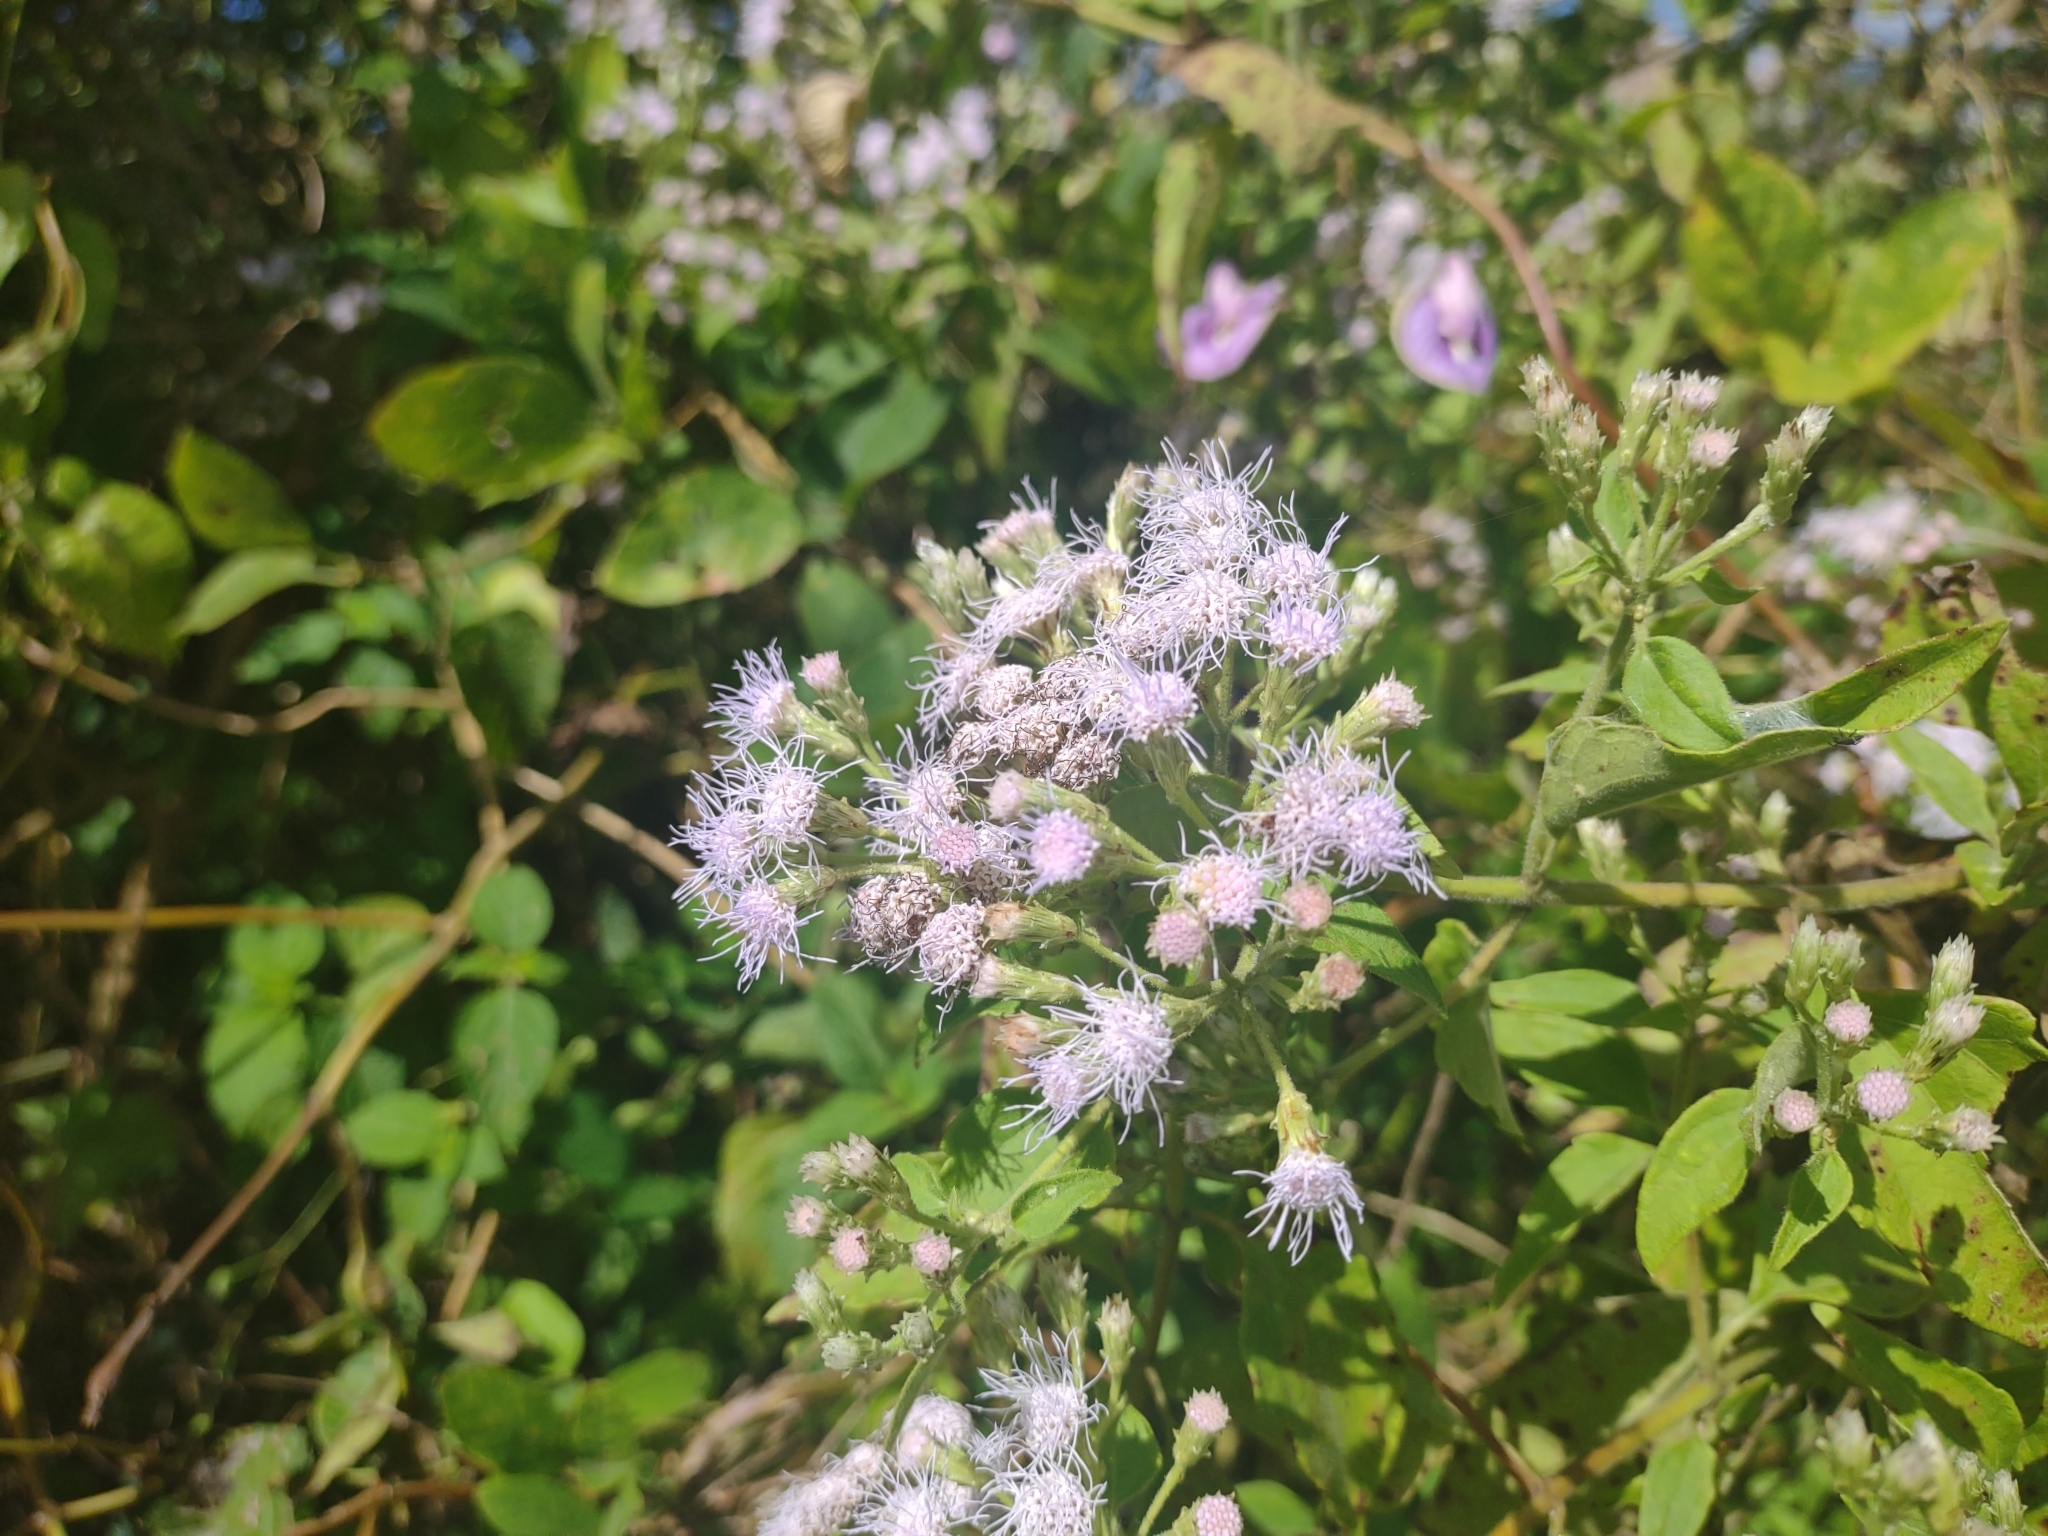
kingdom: Plantae
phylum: Tracheophyta
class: Magnoliopsida
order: Asterales
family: Asteraceae
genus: Chromolaena
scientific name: Chromolaena odorata
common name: Siamweed
